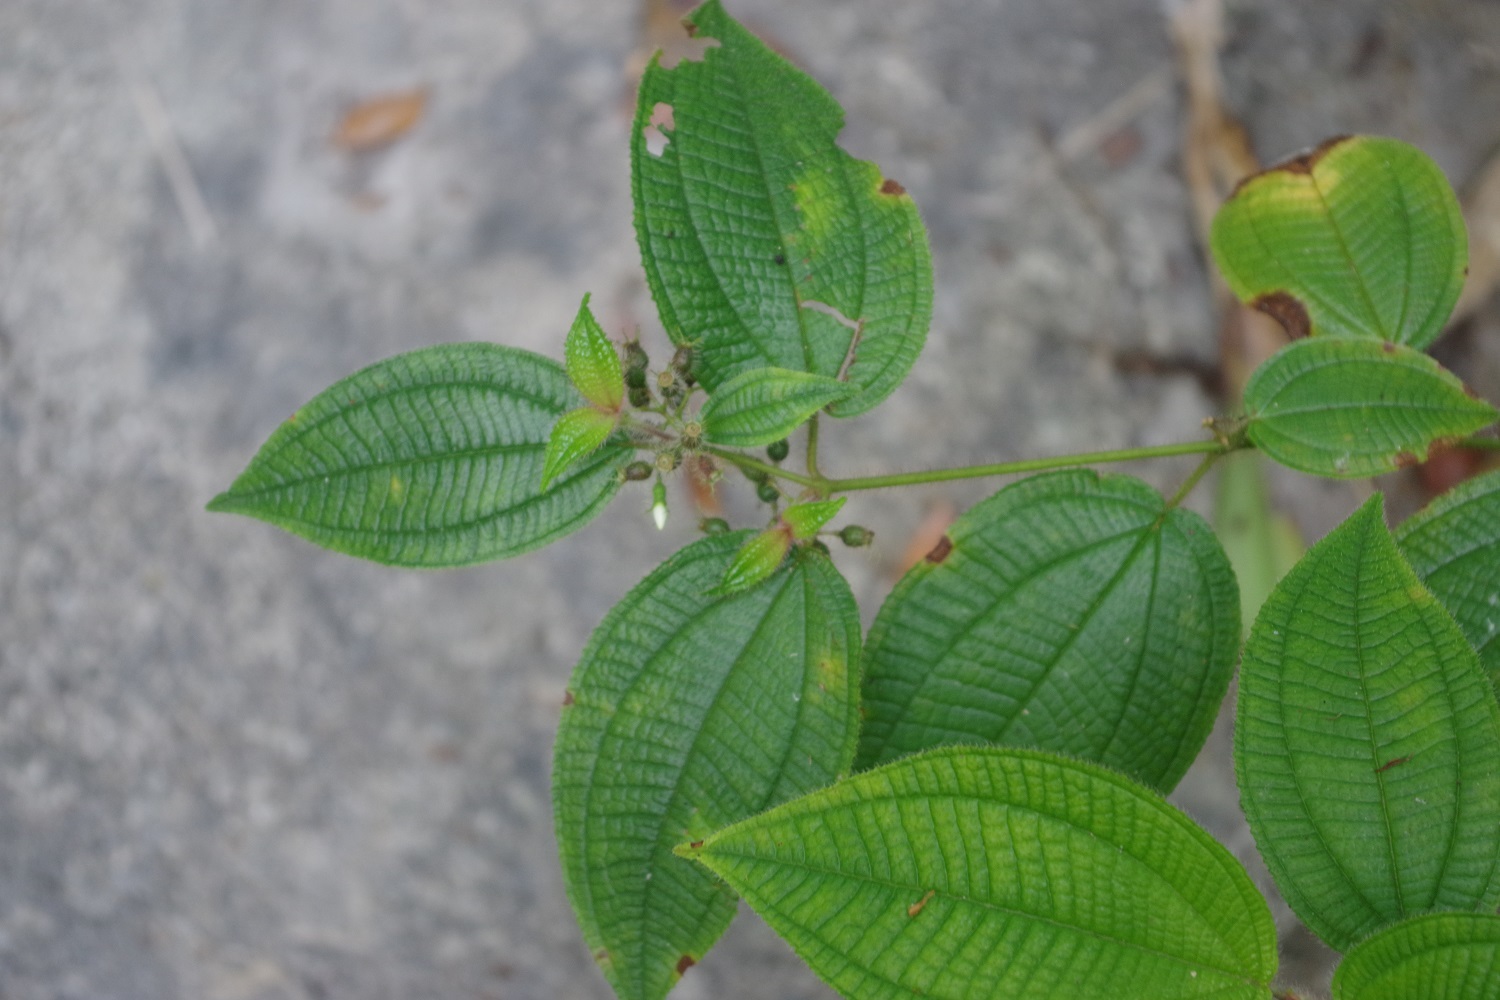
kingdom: Plantae
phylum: Tracheophyta
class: Magnoliopsida
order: Myrtales
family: Melastomataceae
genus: Miconia
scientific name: Miconia crenata
